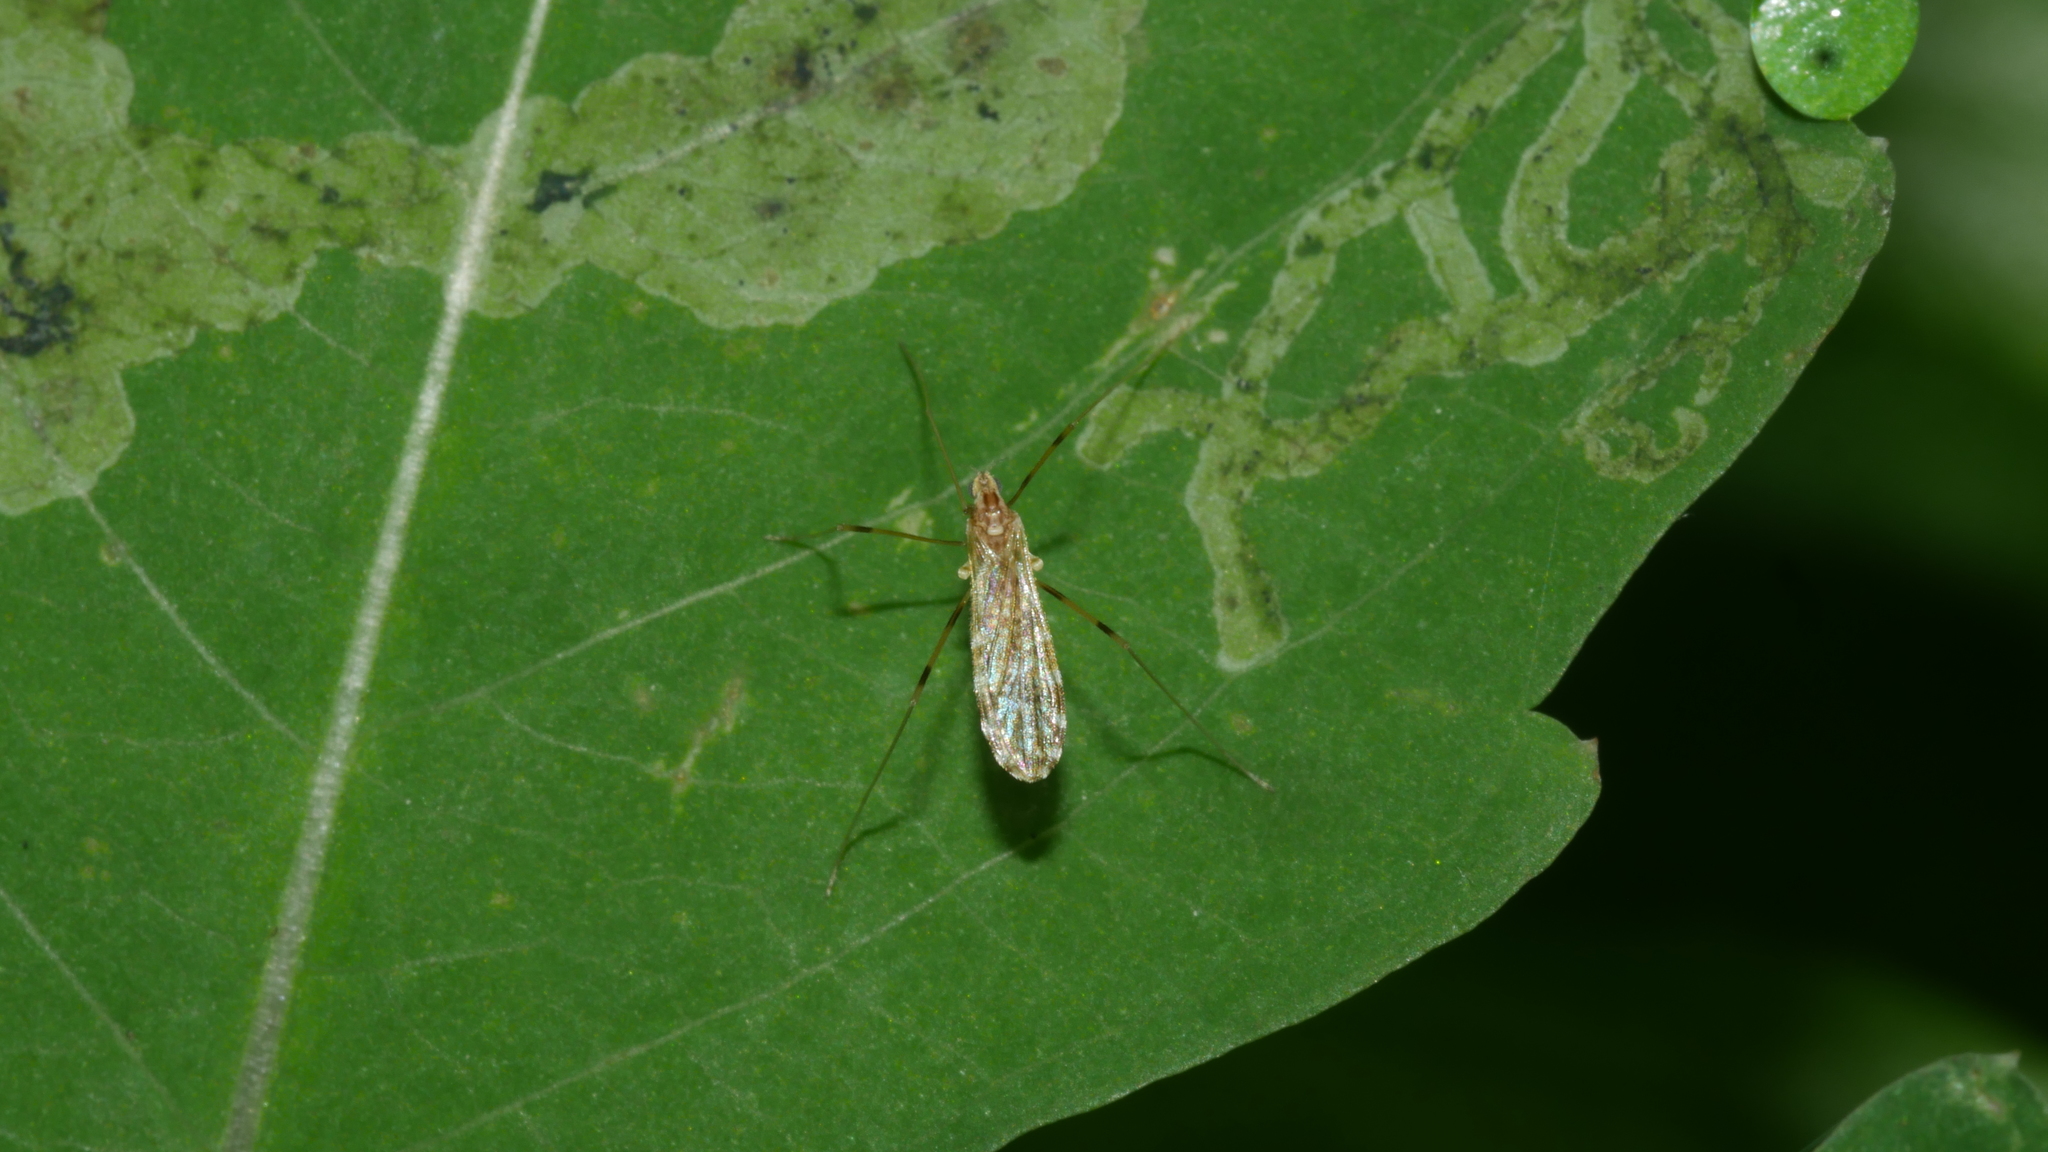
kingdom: Animalia
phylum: Arthropoda
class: Insecta
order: Diptera
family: Limoniidae
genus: Erioptera
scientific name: Erioptera caliptera
